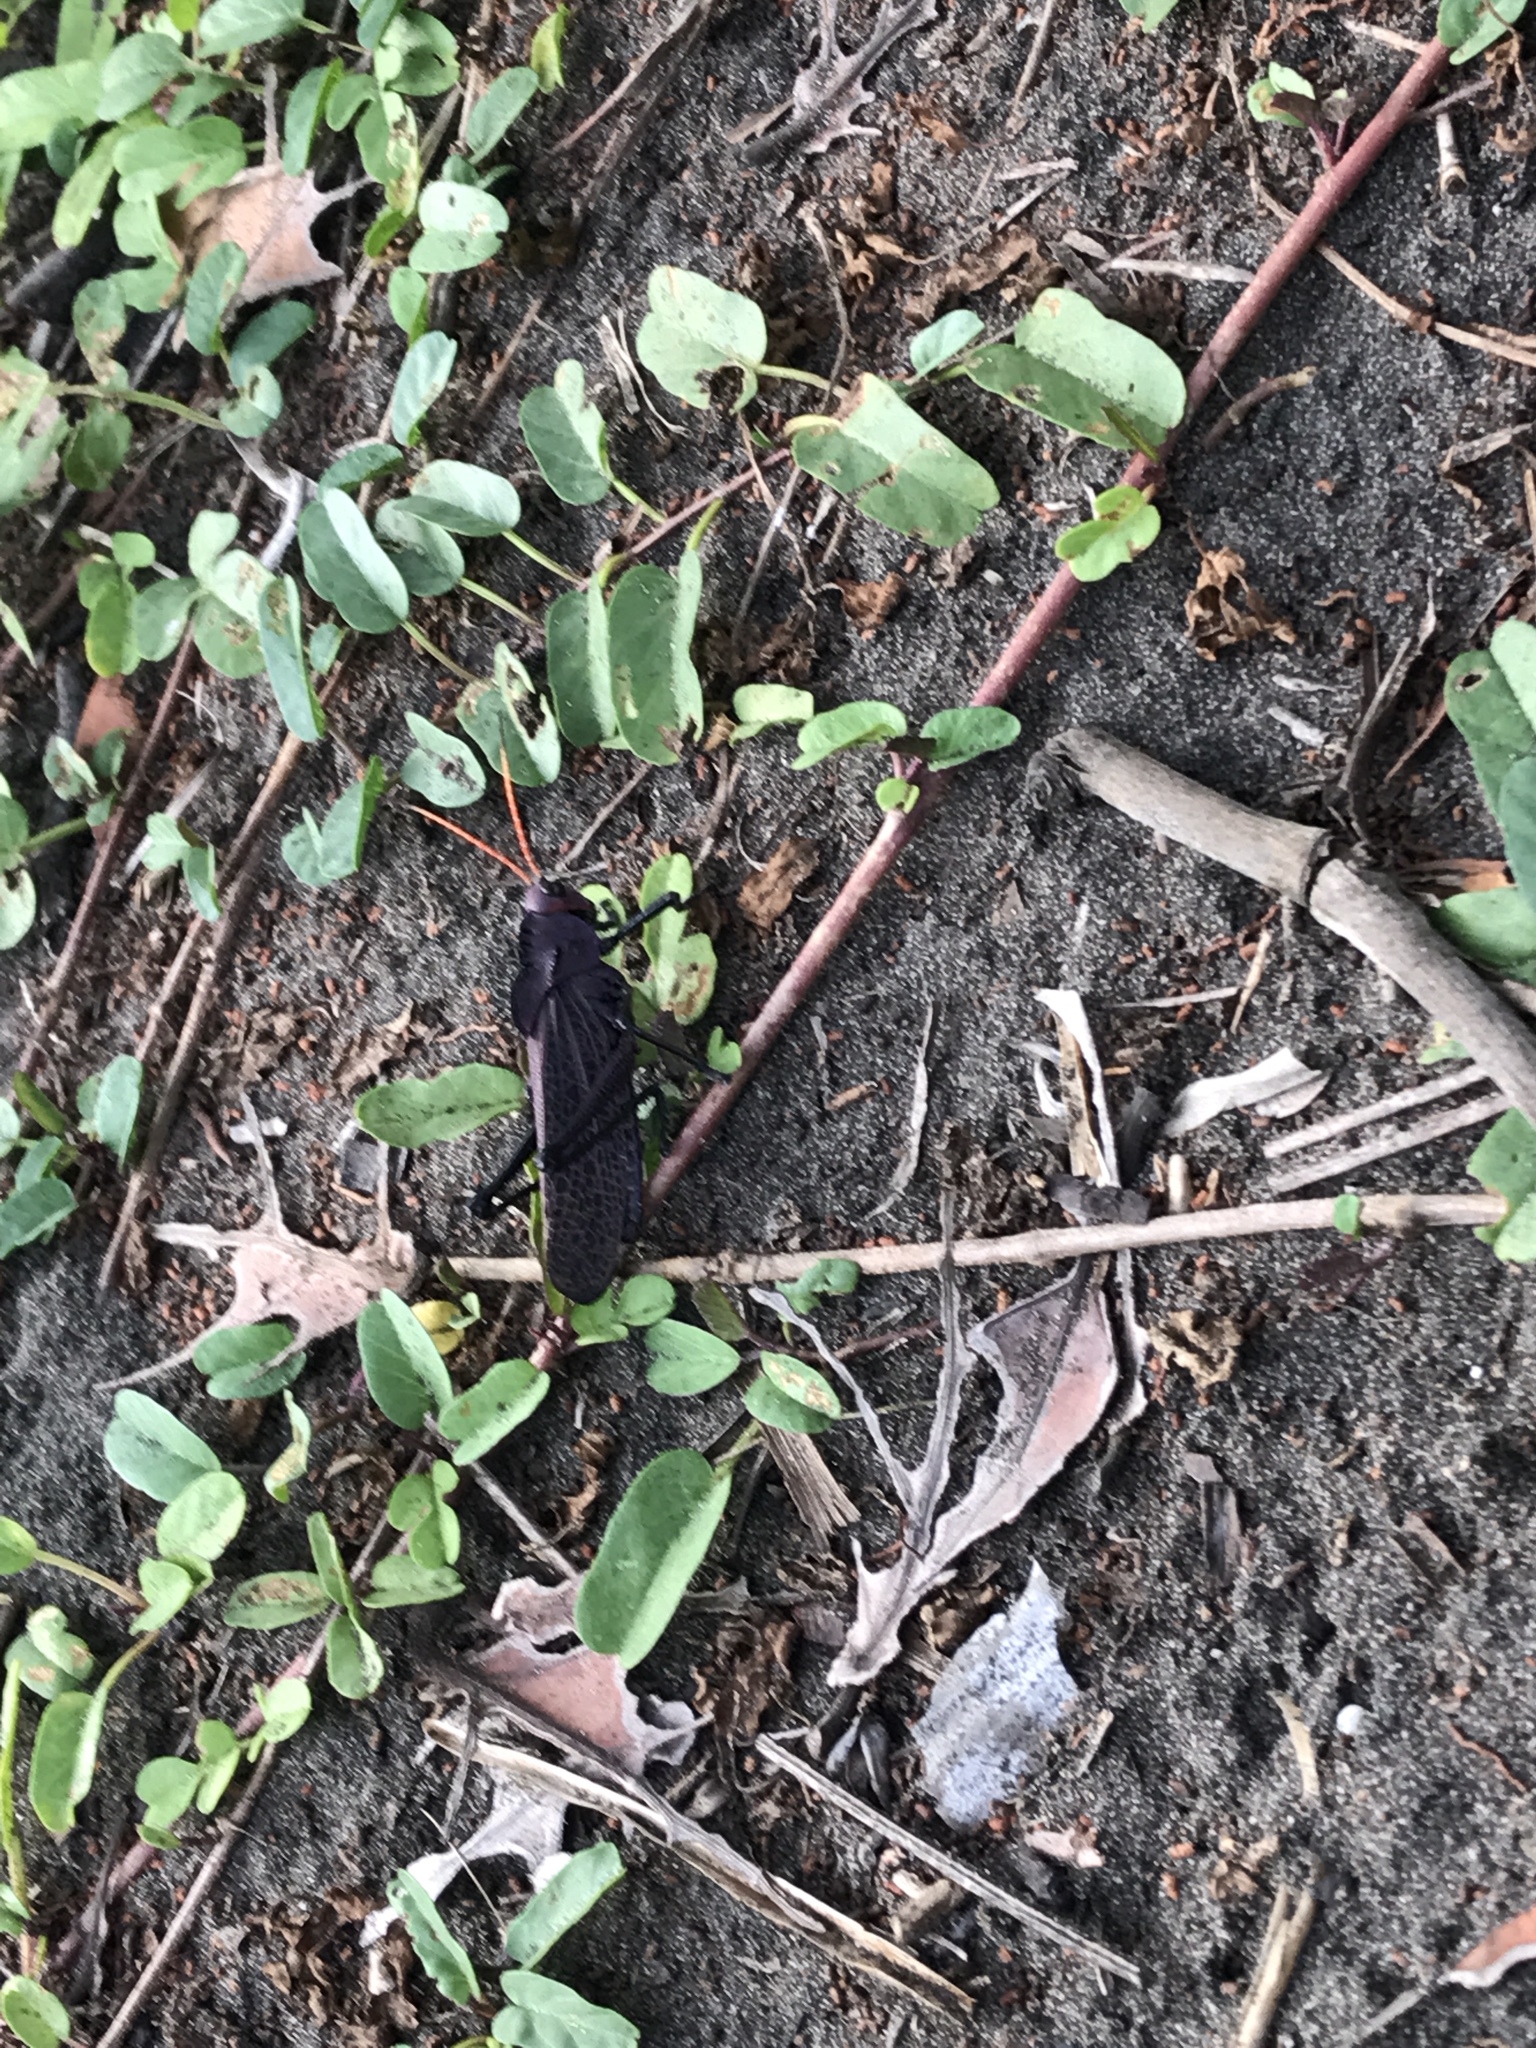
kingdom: Animalia
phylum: Arthropoda
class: Insecta
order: Orthoptera
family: Romaleidae
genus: Romalea
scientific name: Romalea
